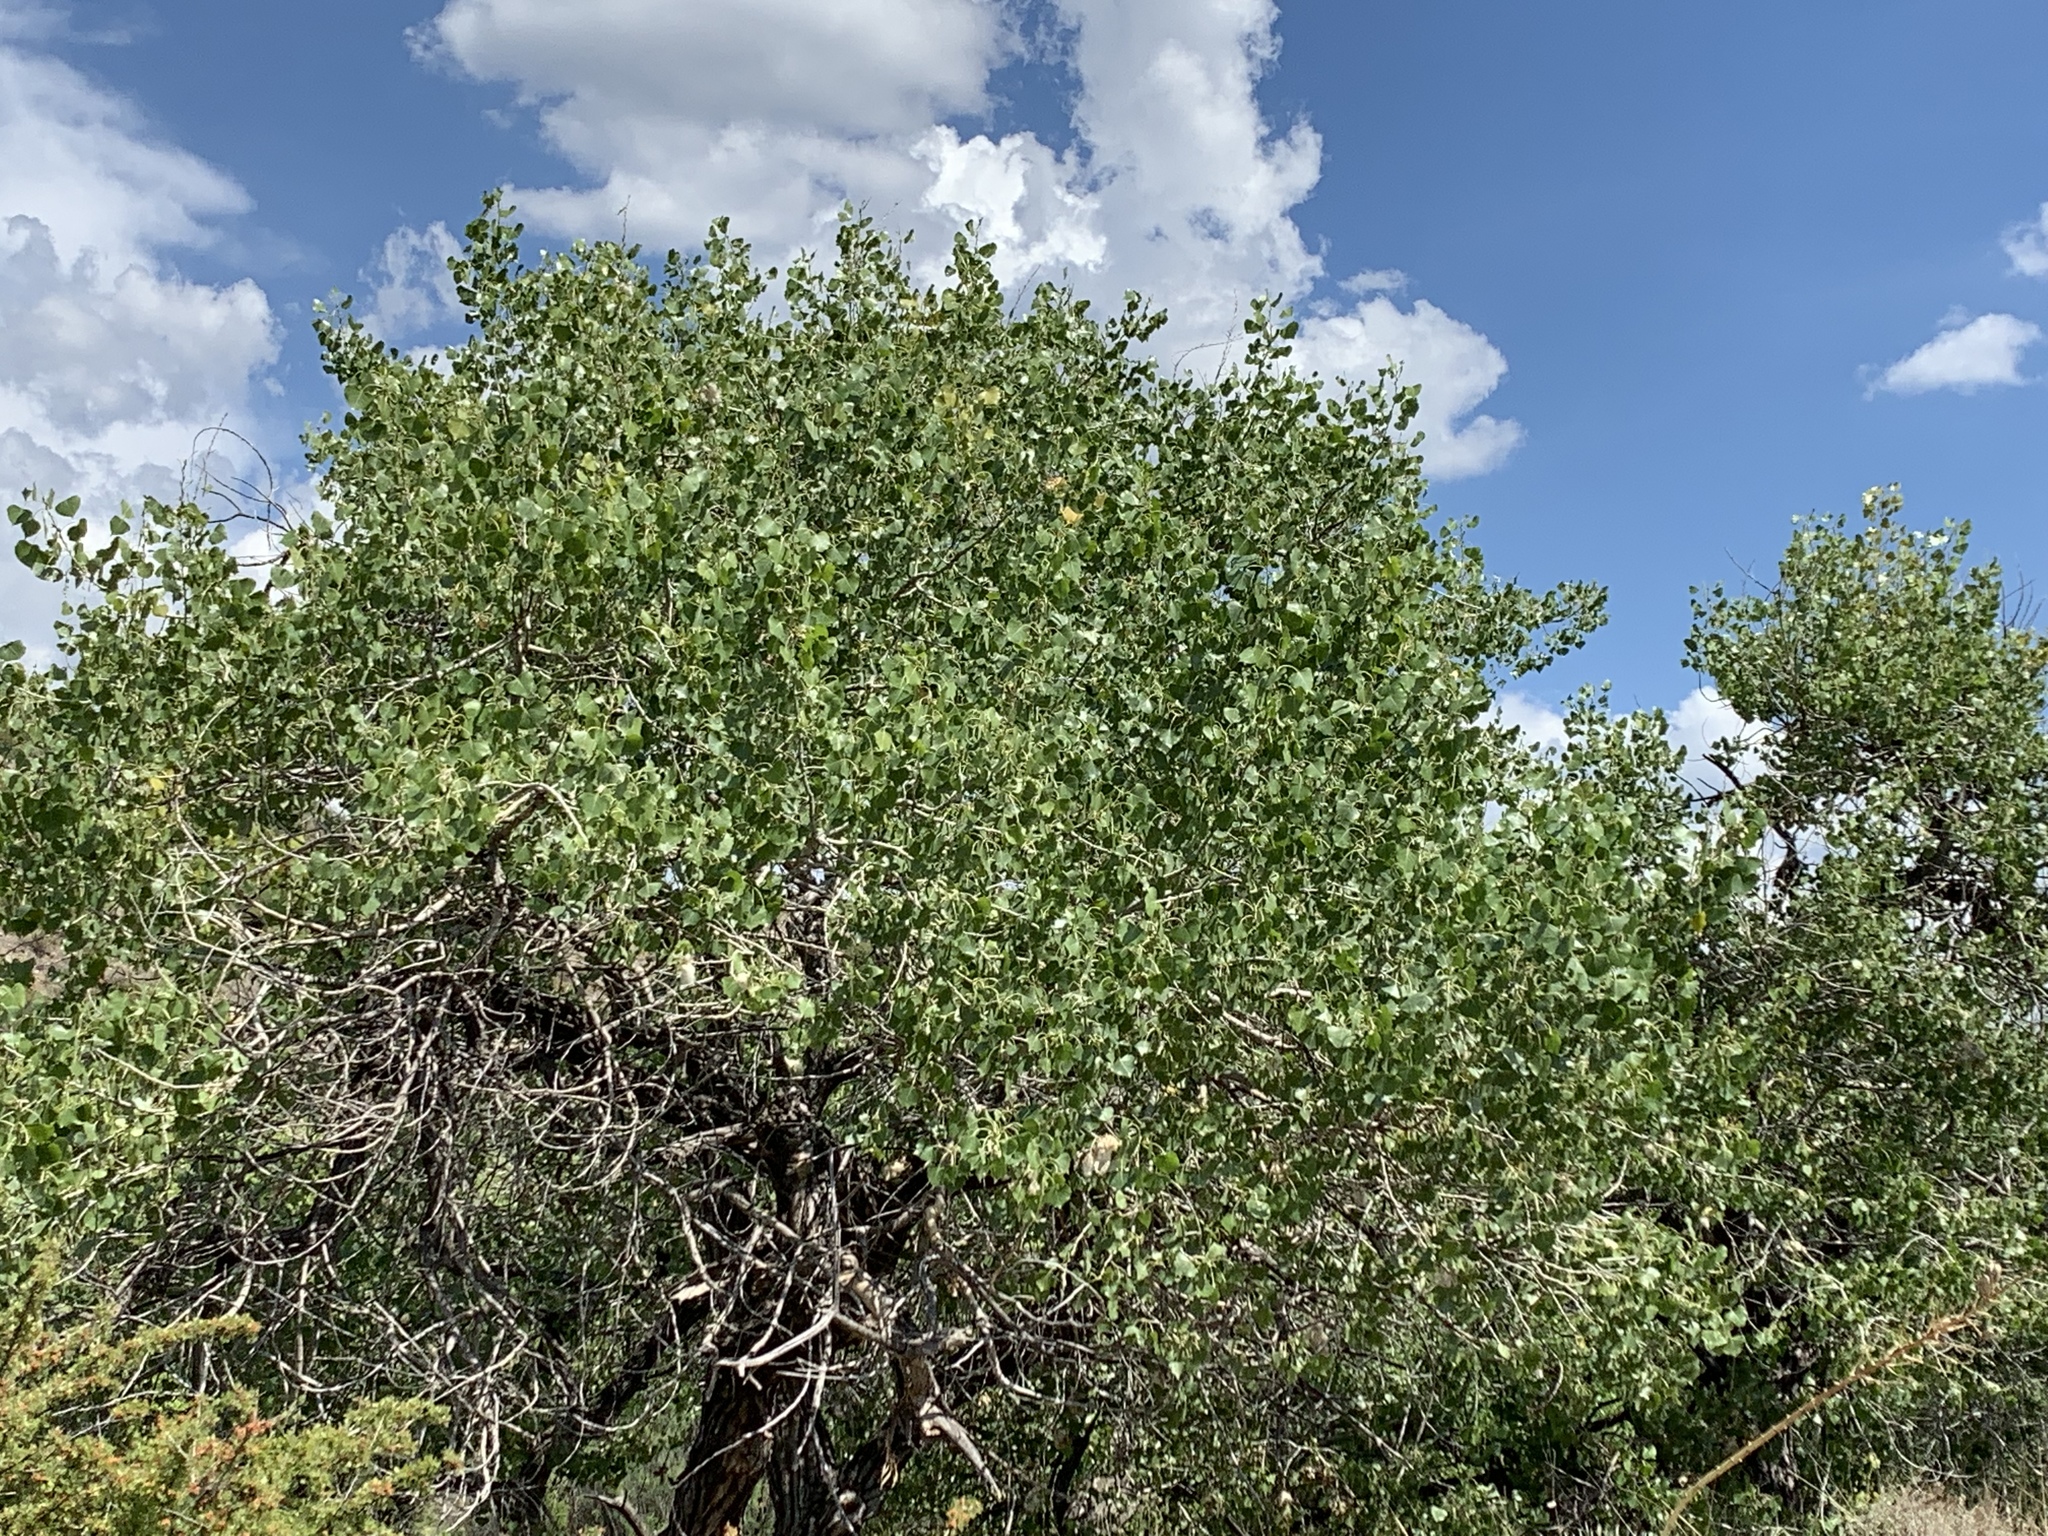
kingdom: Plantae
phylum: Tracheophyta
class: Magnoliopsida
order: Malpighiales
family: Salicaceae
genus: Populus
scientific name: Populus fremontii
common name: Fremont's cottonwood
